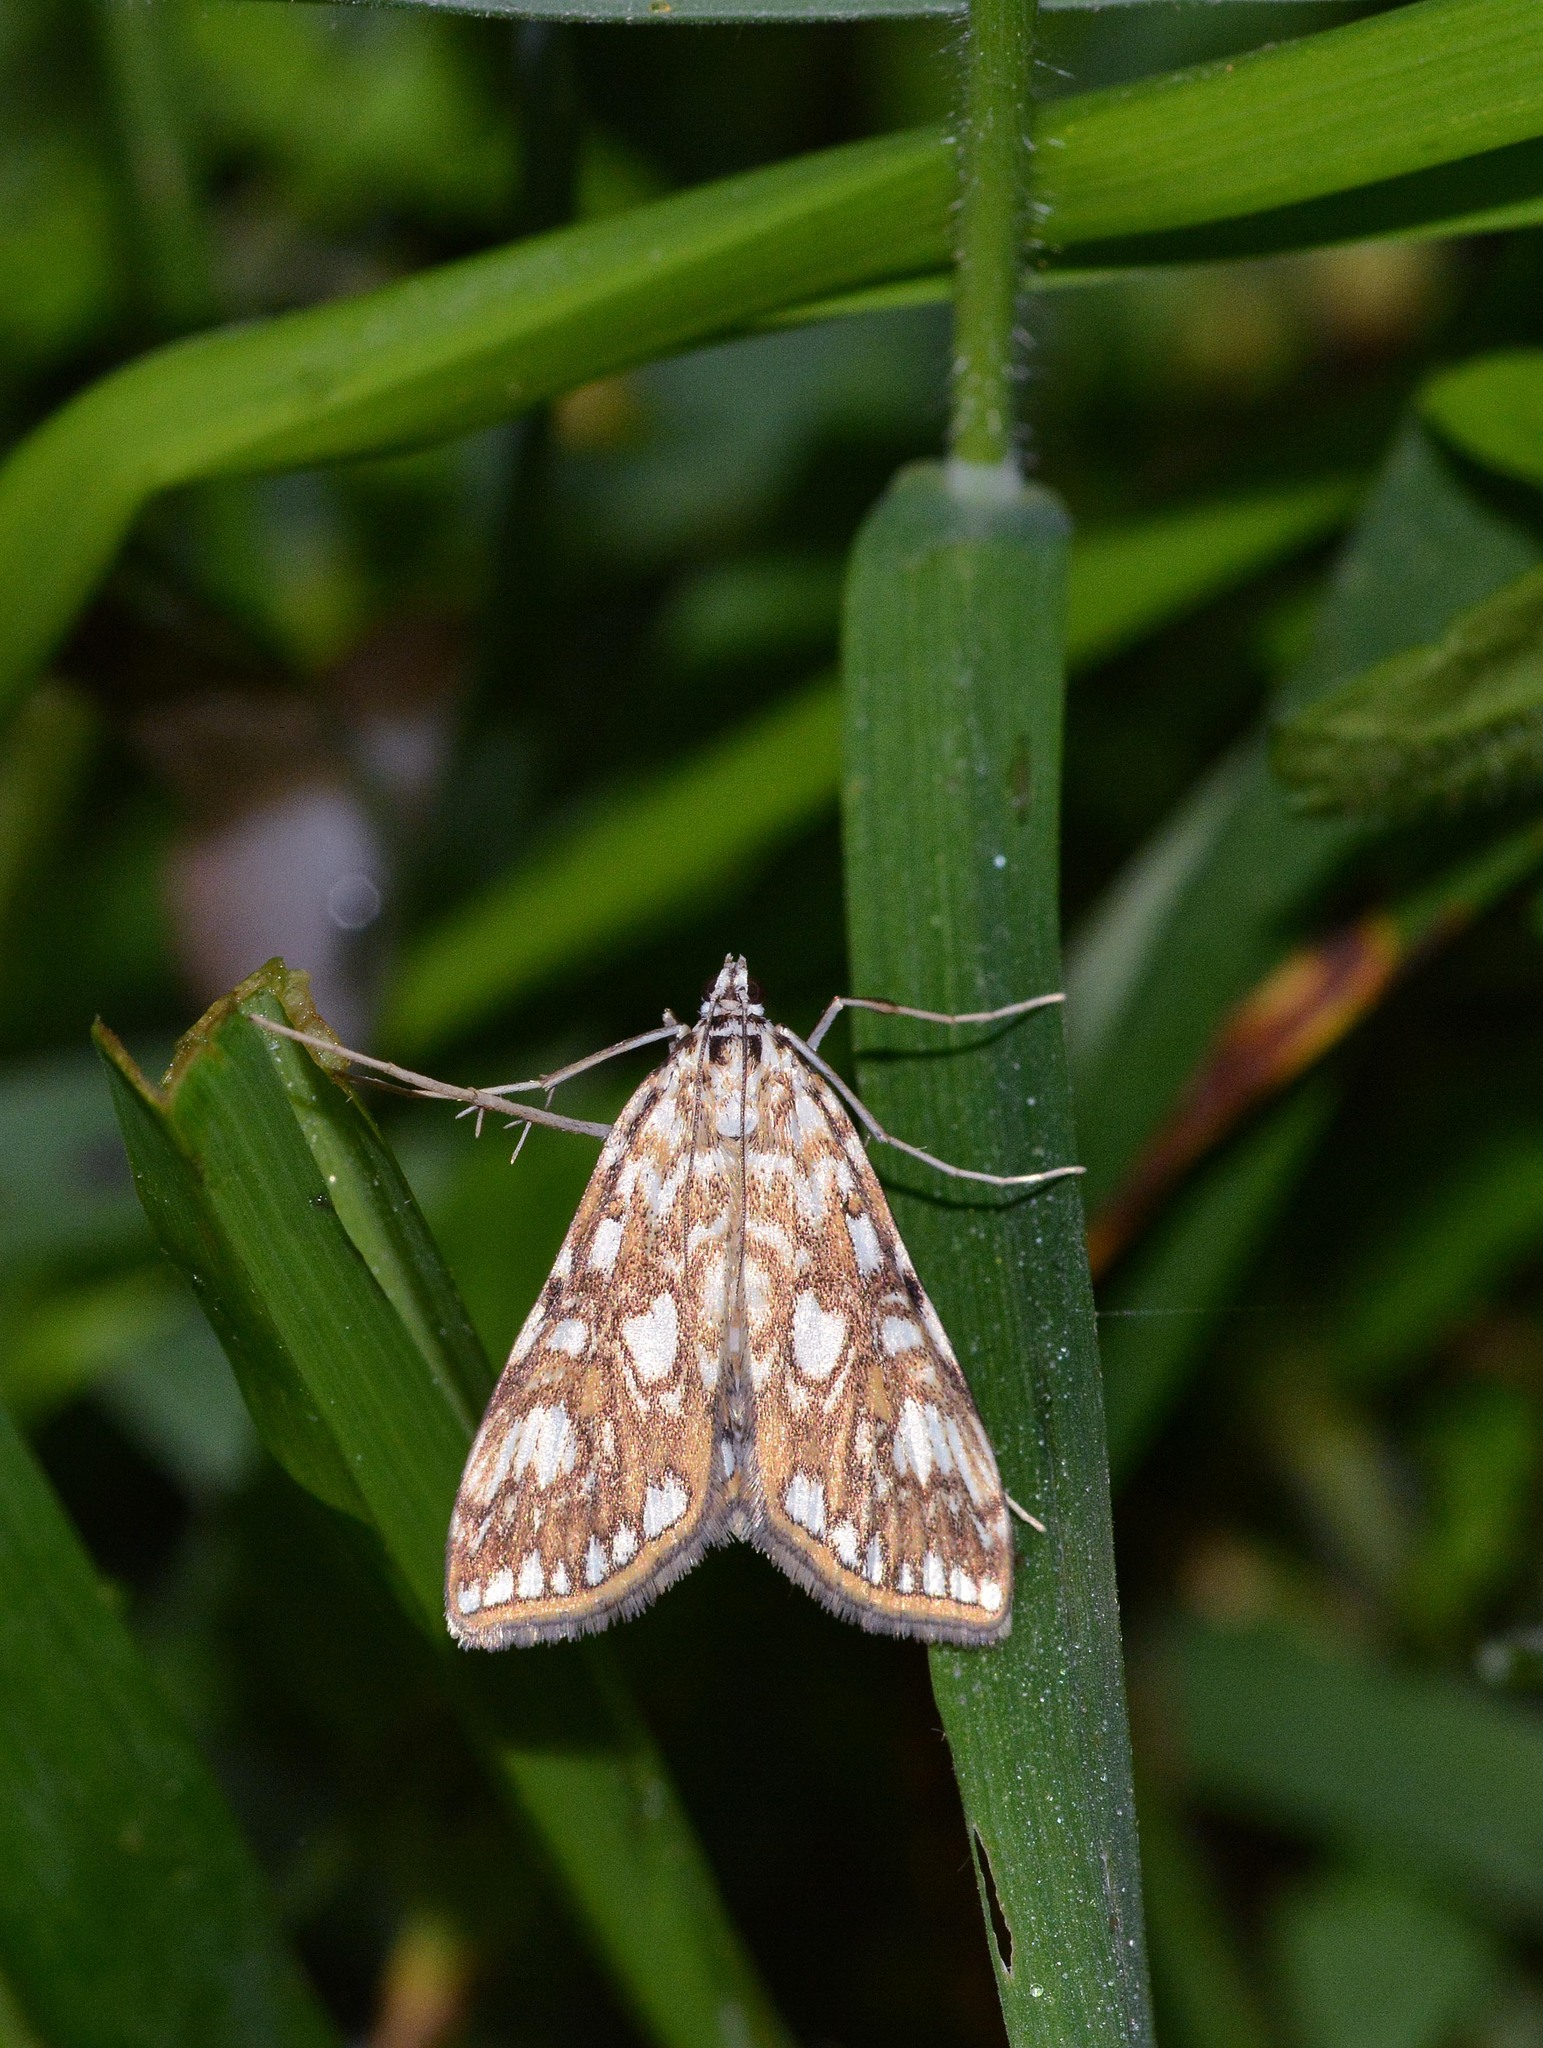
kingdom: Animalia
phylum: Arthropoda
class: Insecta
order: Lepidoptera
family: Crambidae
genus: Elophila
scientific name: Elophila nymphaeata
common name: Brown china-mark
